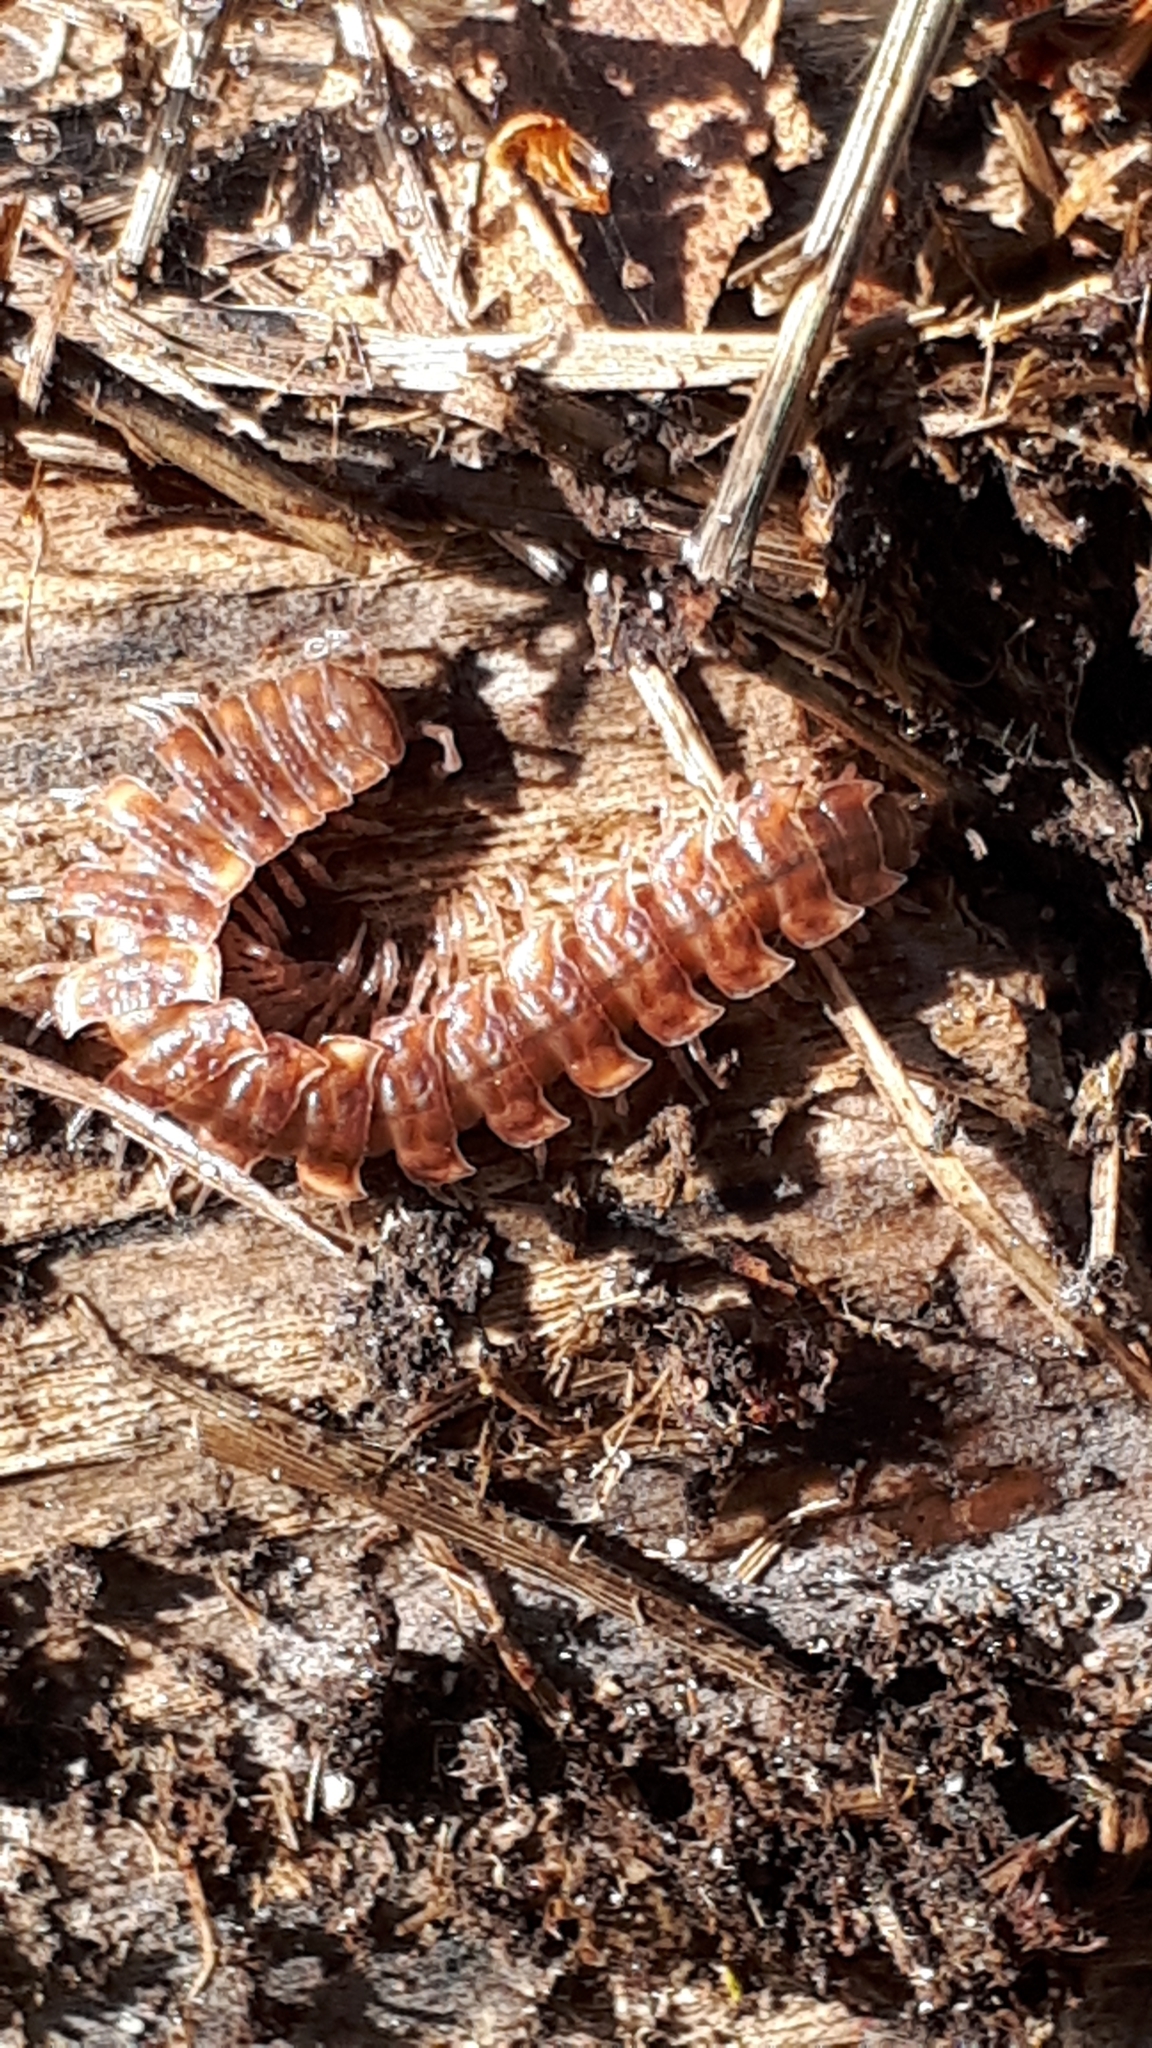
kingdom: Animalia
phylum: Arthropoda
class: Diplopoda
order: Polydesmida
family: Polydesmidae
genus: Polydesmus
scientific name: Polydesmus complanatus
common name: Flat-backed millipede
